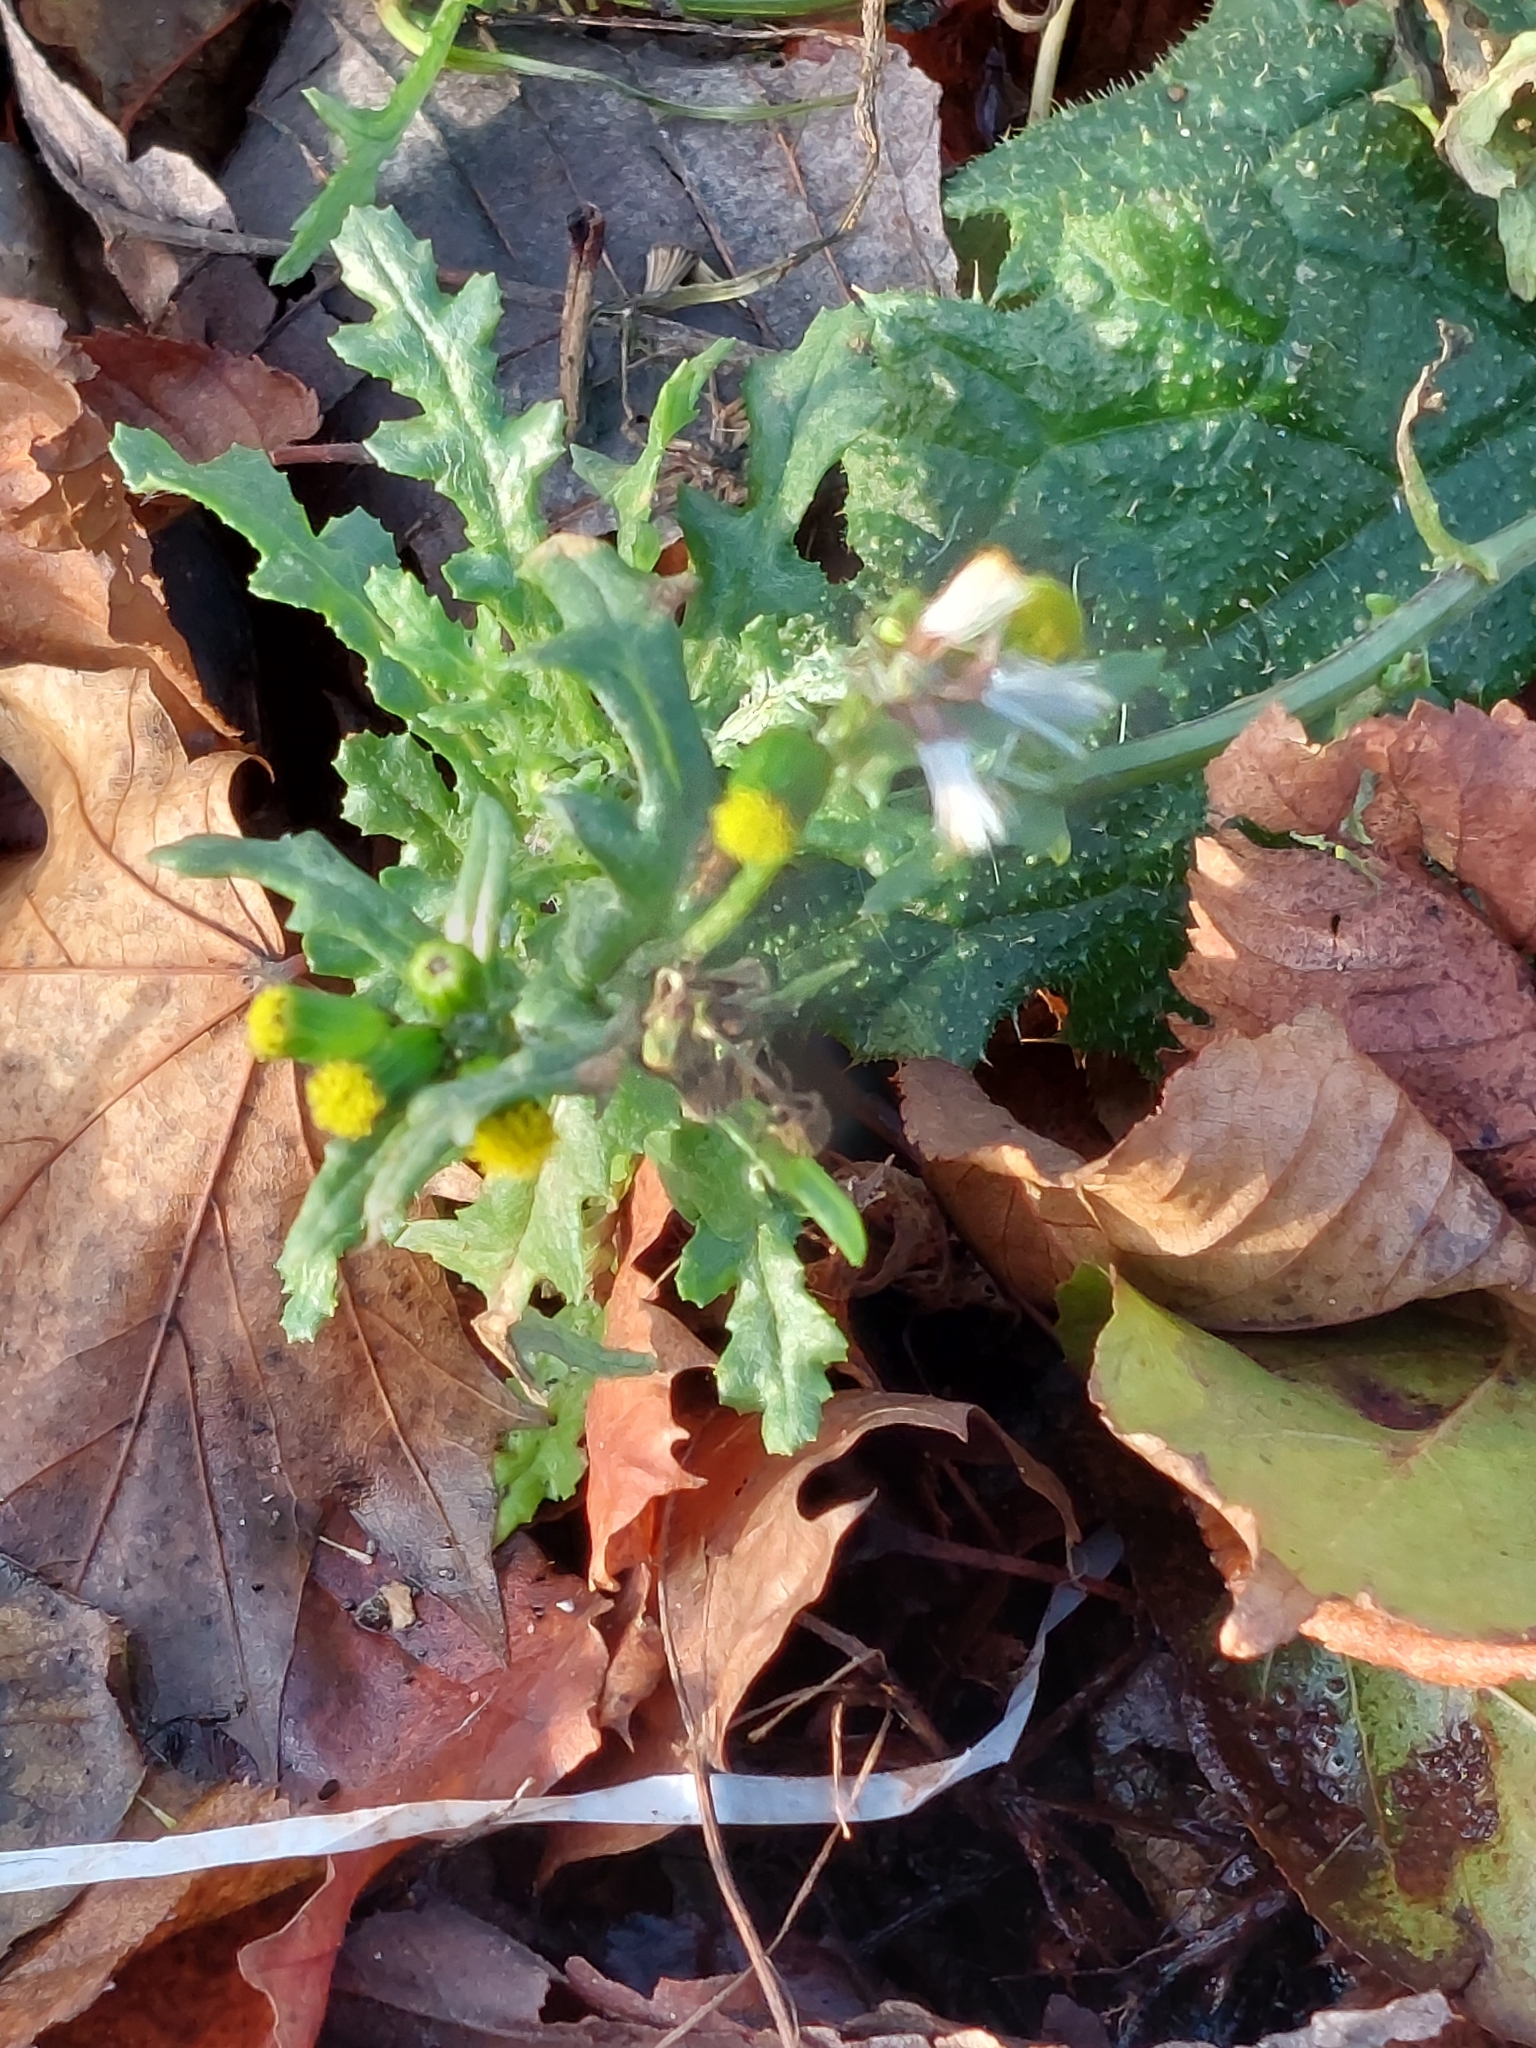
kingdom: Plantae
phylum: Tracheophyta
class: Magnoliopsida
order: Asterales
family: Asteraceae
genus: Senecio
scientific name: Senecio vulgaris
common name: Old-man-in-the-spring
